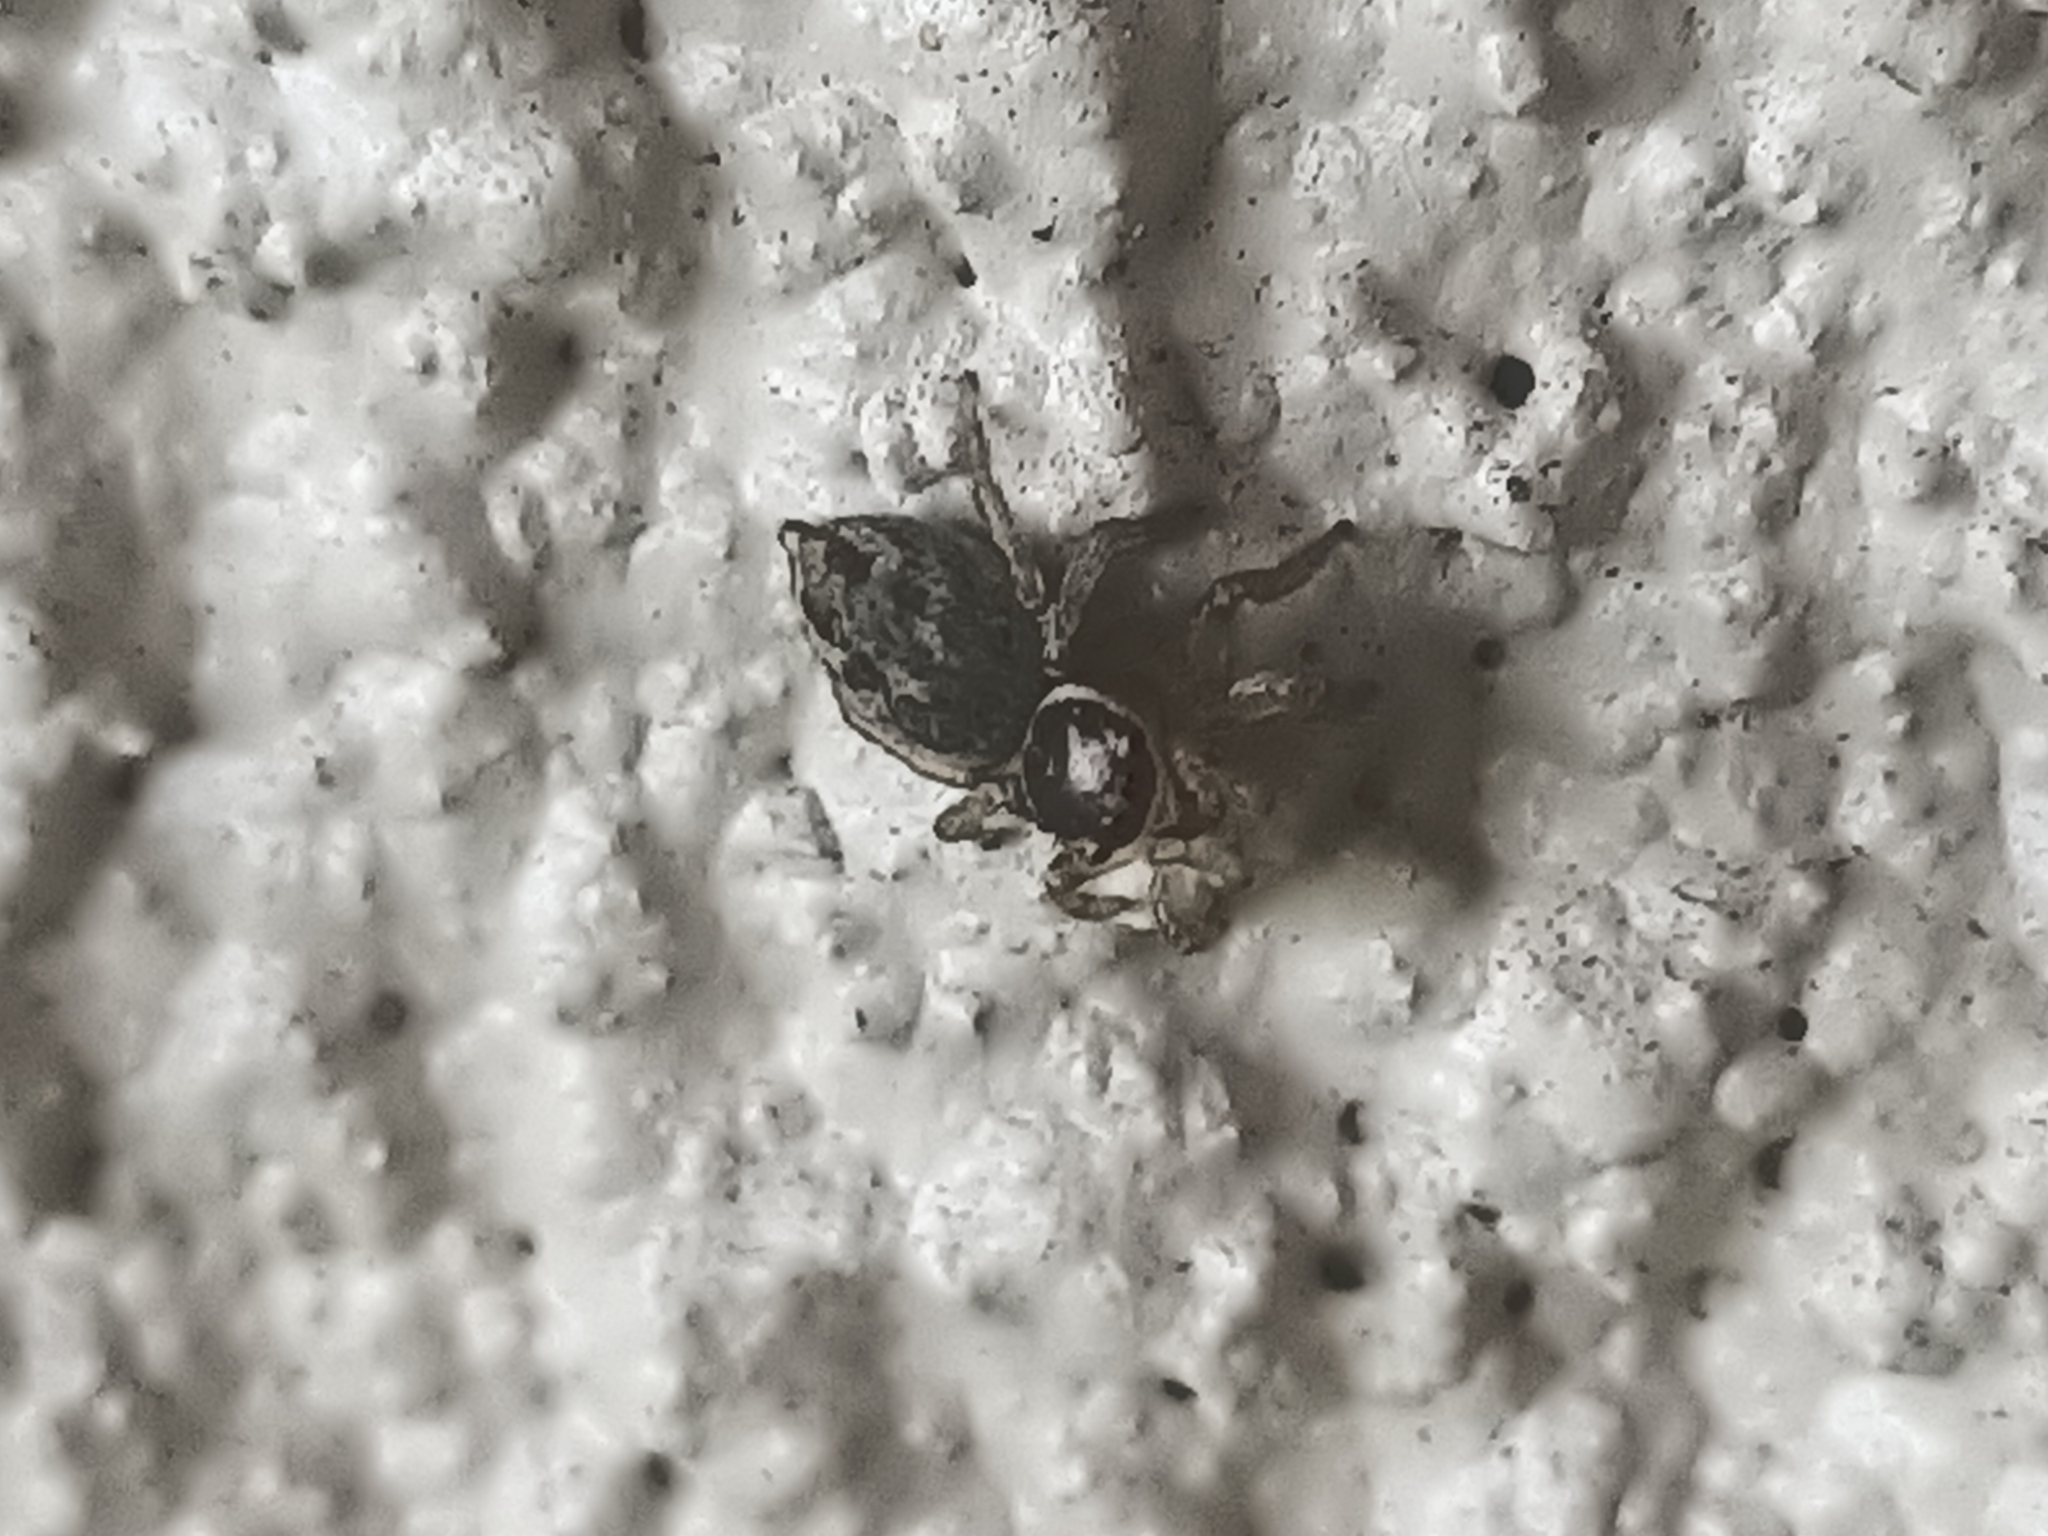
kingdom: Animalia
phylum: Arthropoda
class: Arachnida
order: Araneae
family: Salticidae
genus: Maratus
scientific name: Maratus griseus
